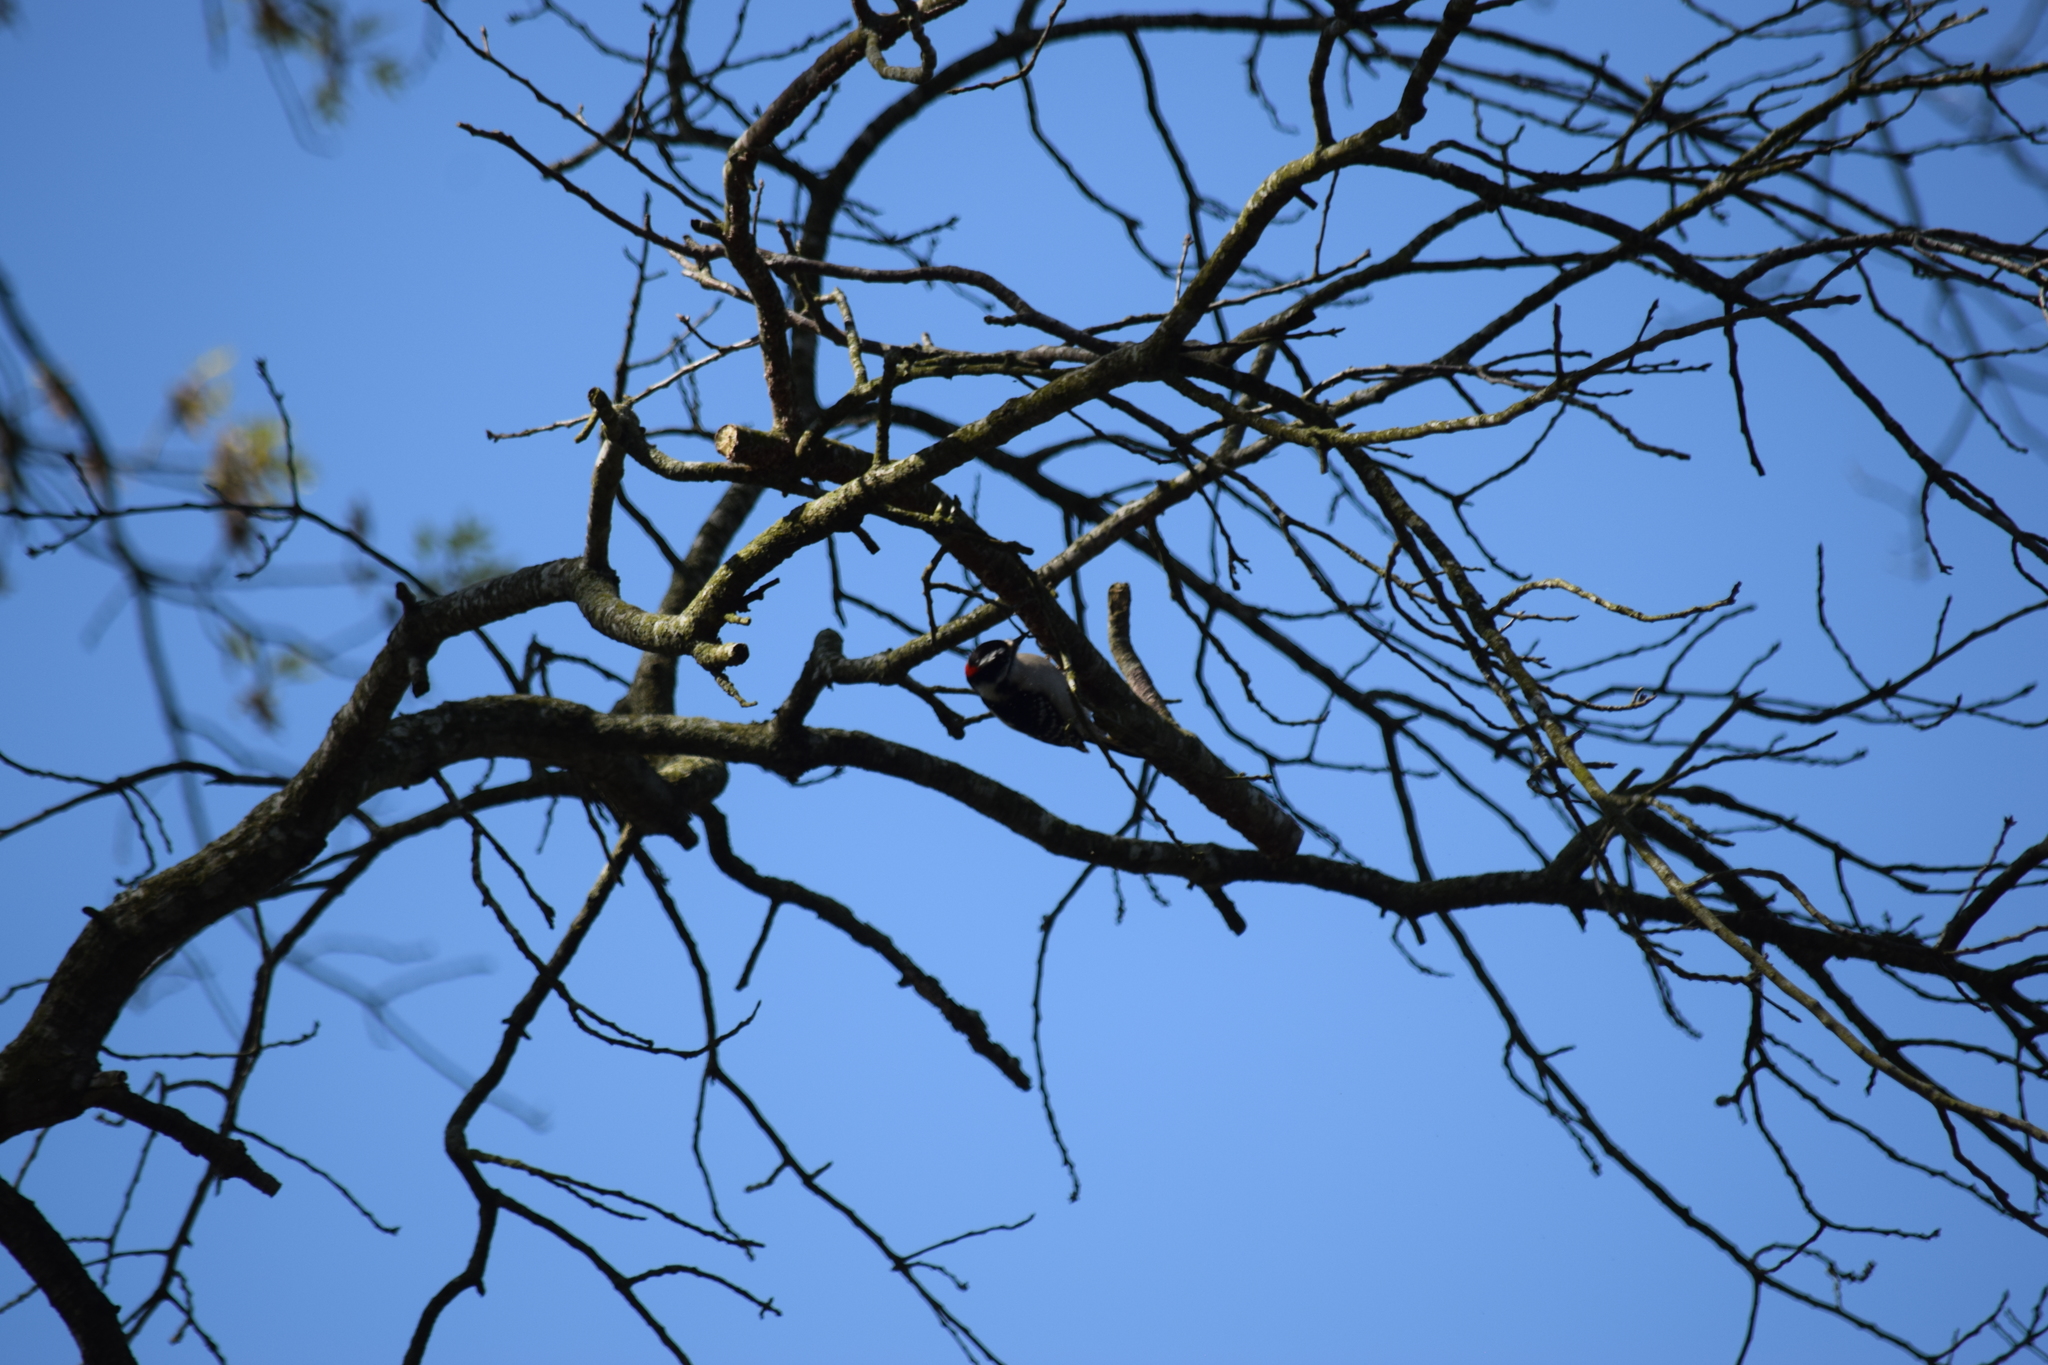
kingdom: Animalia
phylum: Chordata
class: Aves
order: Piciformes
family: Picidae
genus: Dryobates
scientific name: Dryobates pubescens
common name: Downy woodpecker
